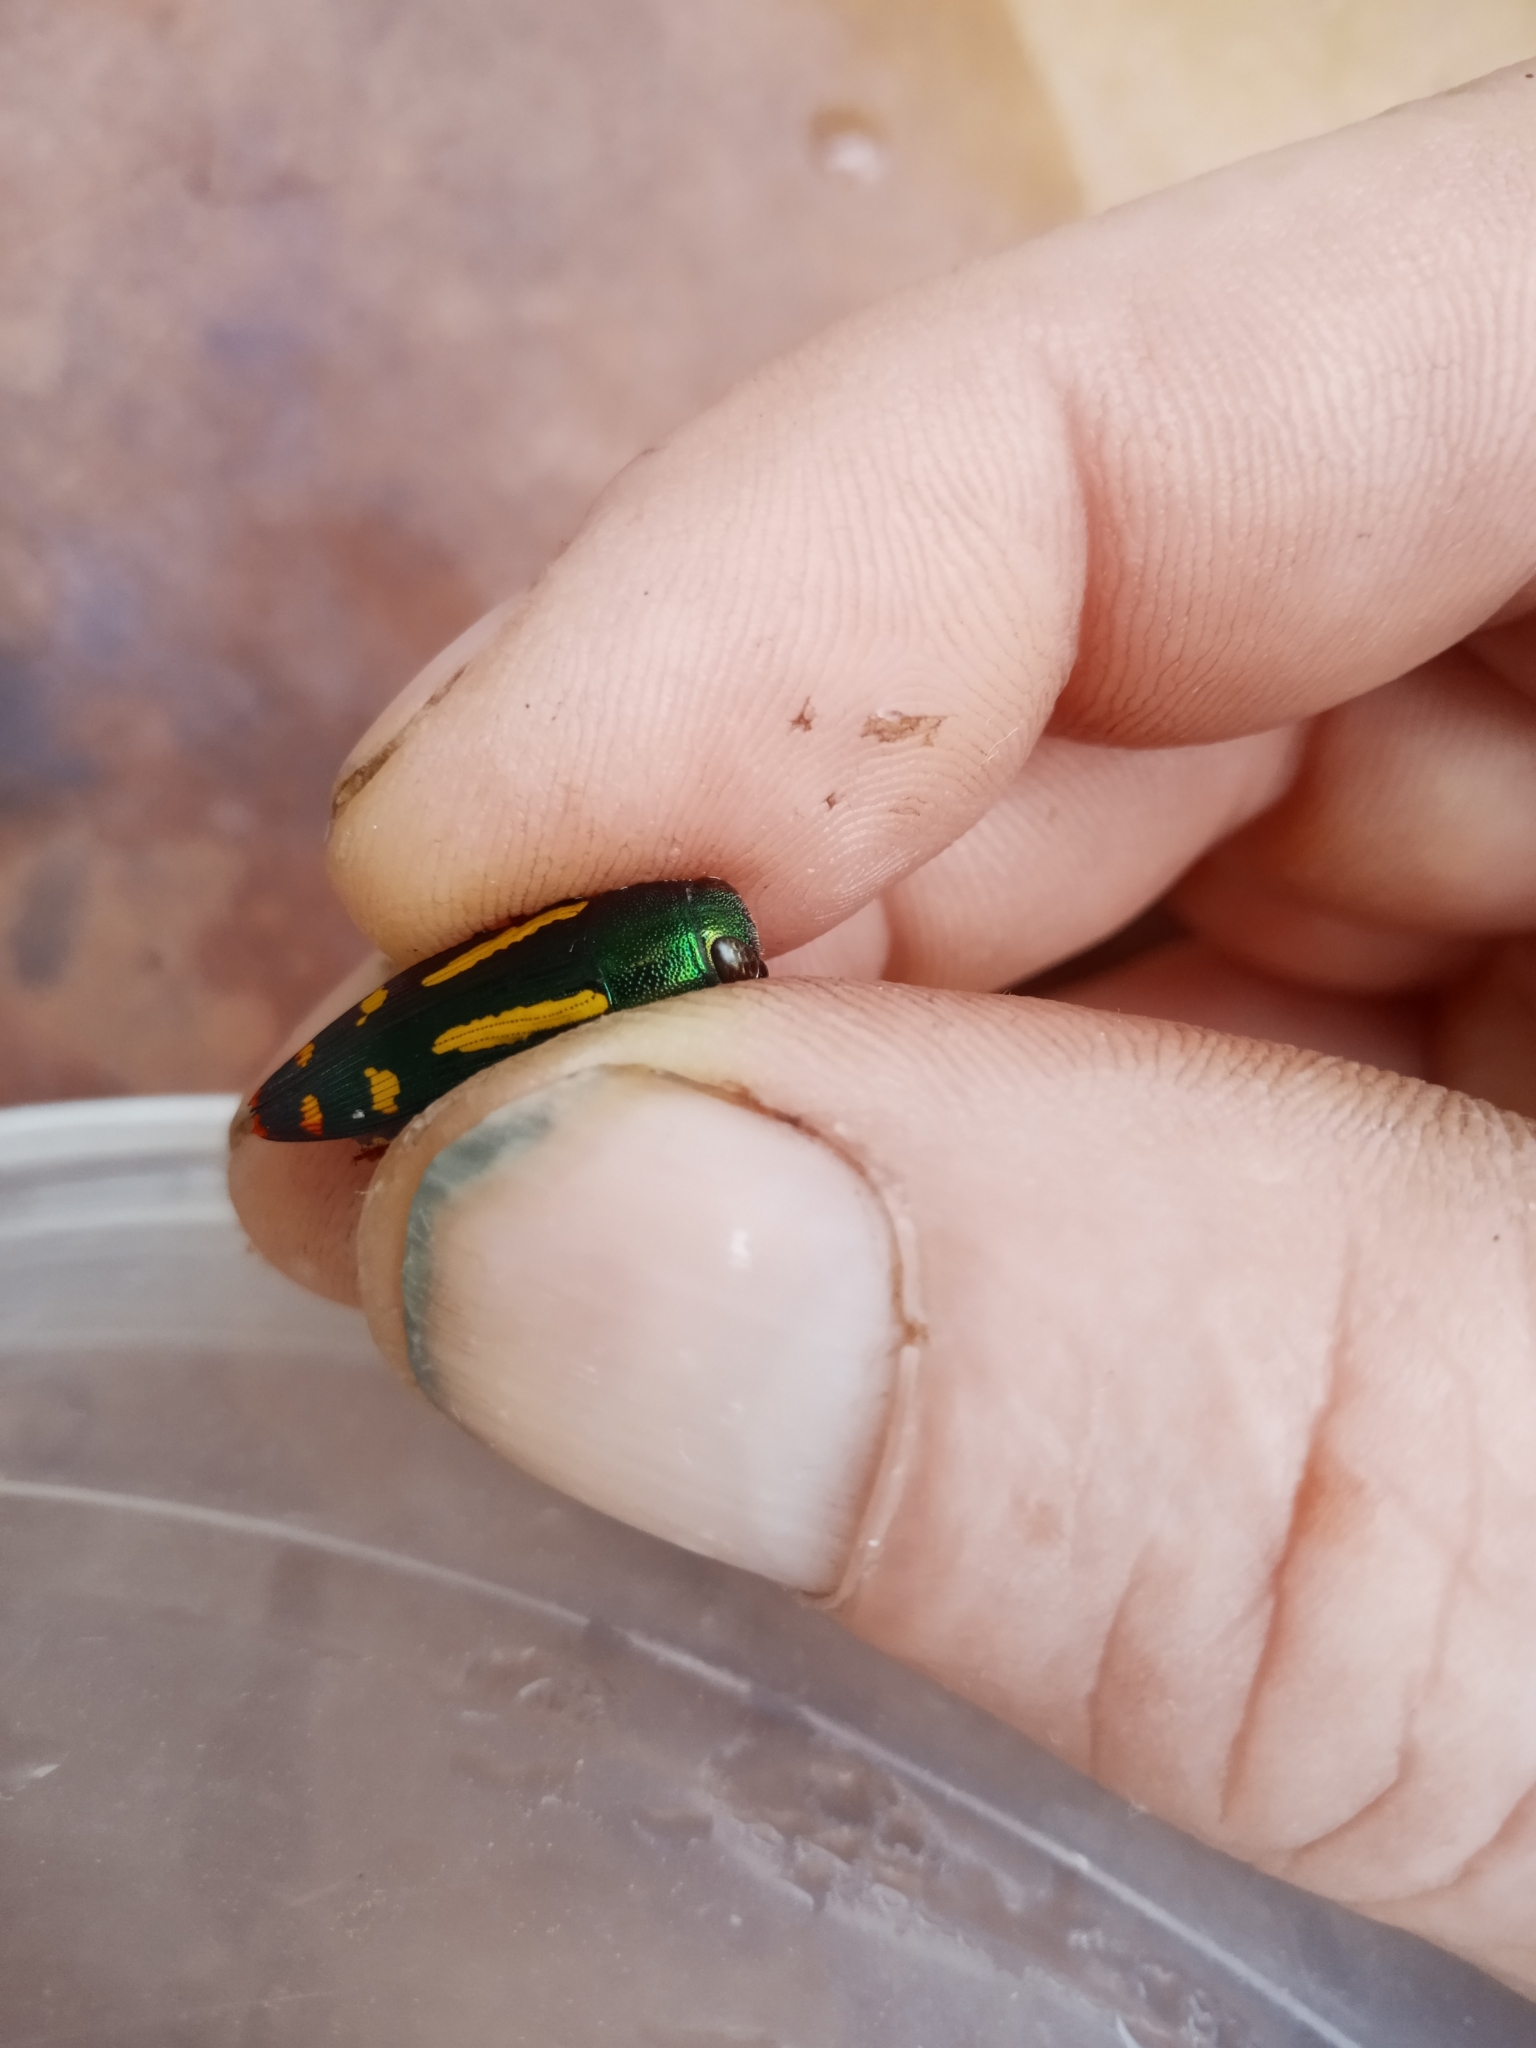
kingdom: Animalia
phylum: Arthropoda
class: Insecta
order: Coleoptera
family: Buprestidae
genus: Buprestis
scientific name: Buprestis rufipes
